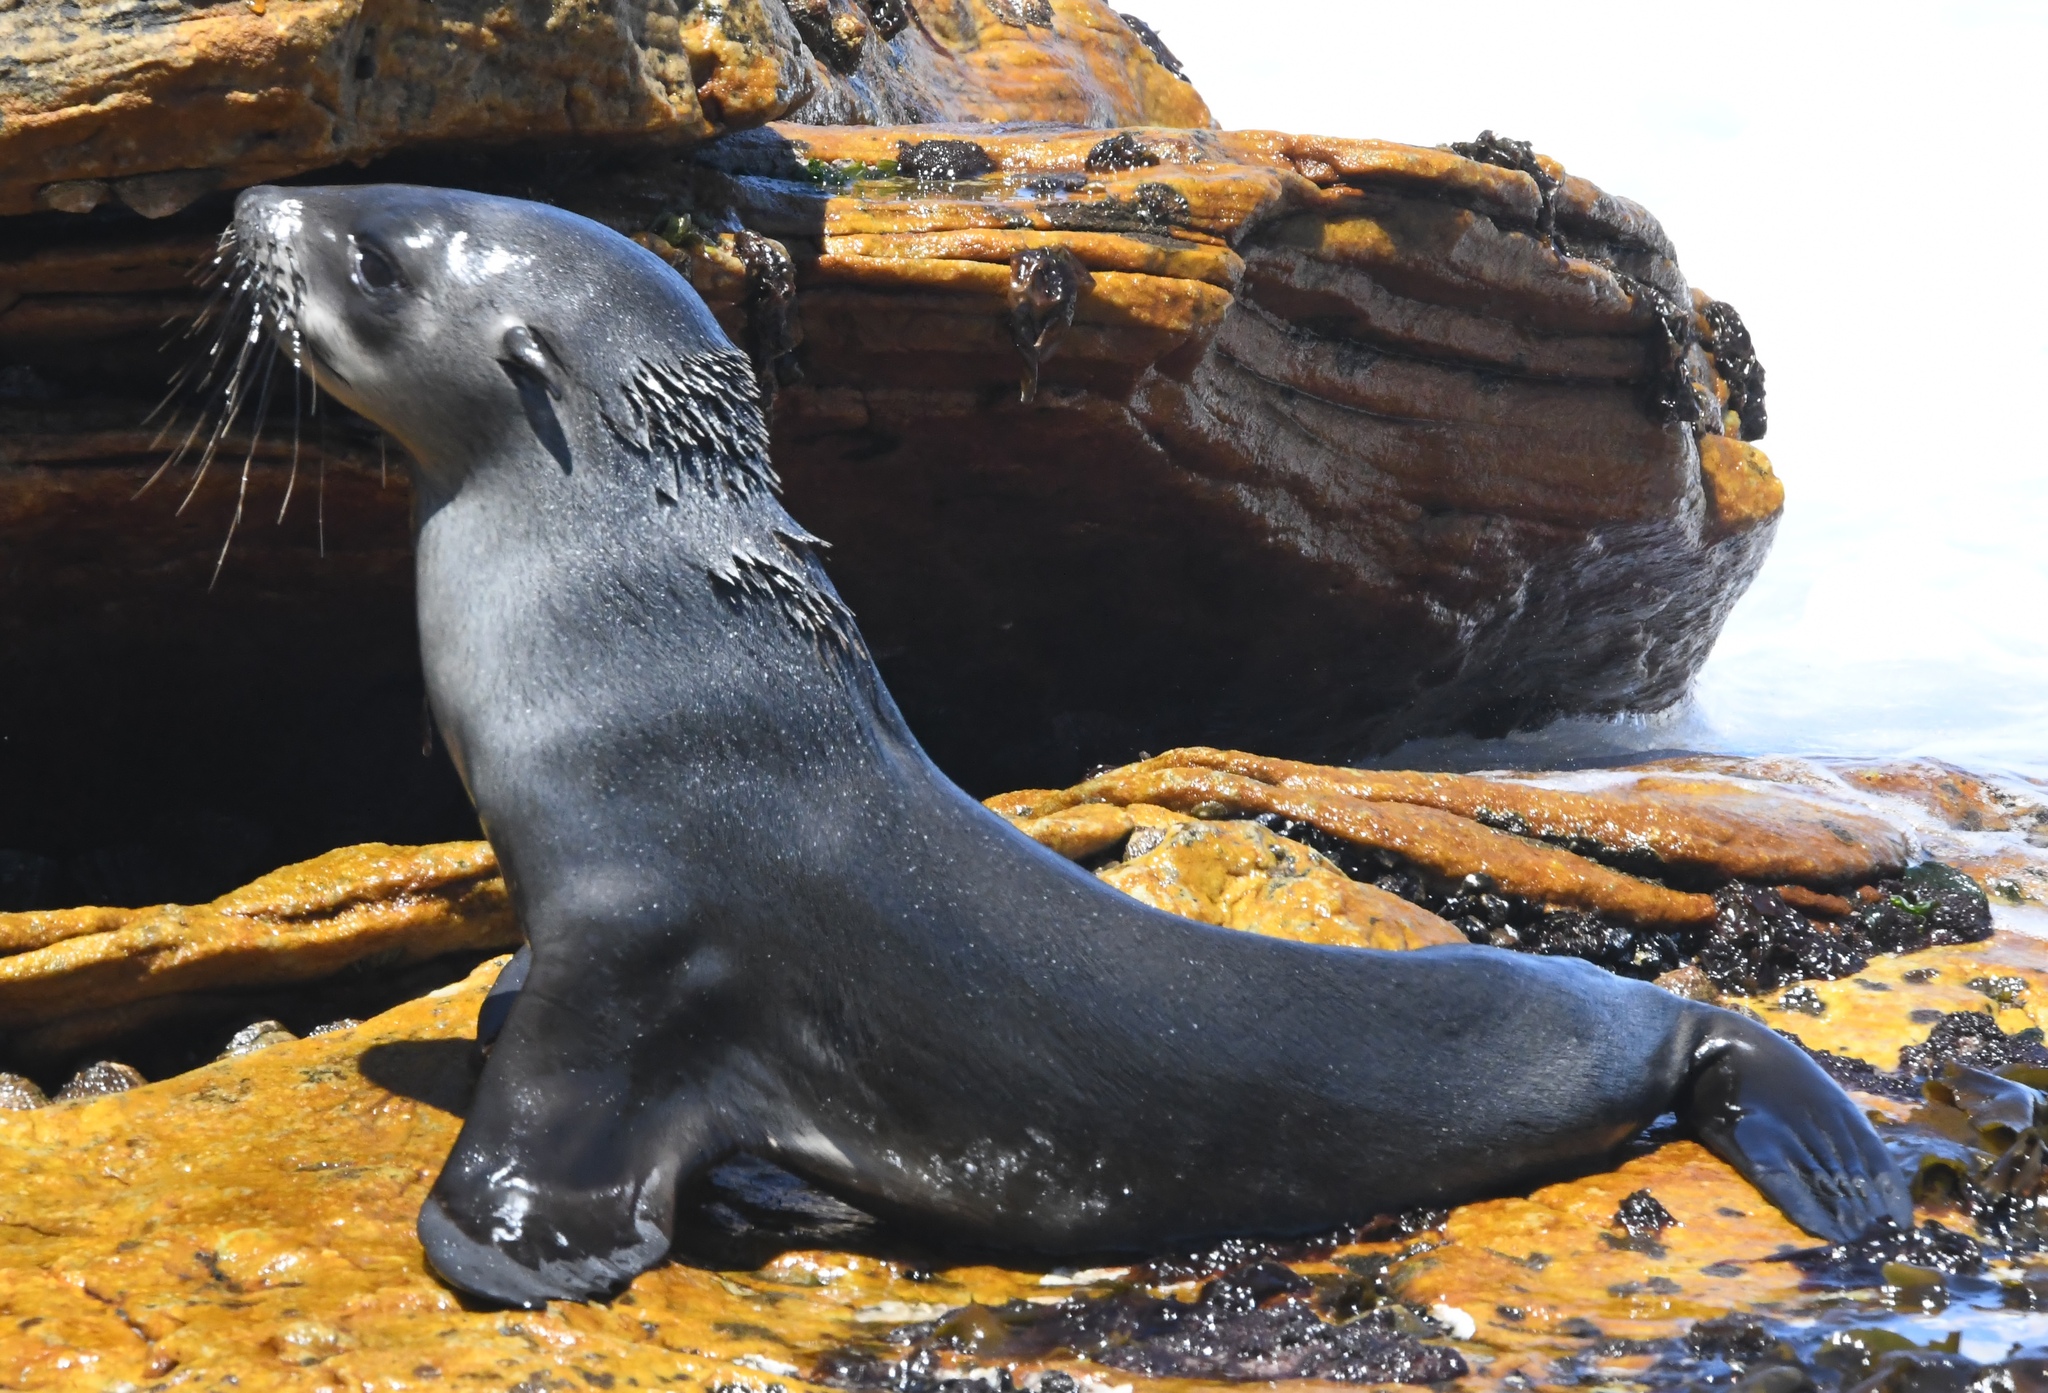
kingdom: Animalia
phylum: Chordata
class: Mammalia
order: Carnivora
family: Otariidae
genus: Arctocephalus
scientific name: Arctocephalus pusillus
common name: Brown fur seal
